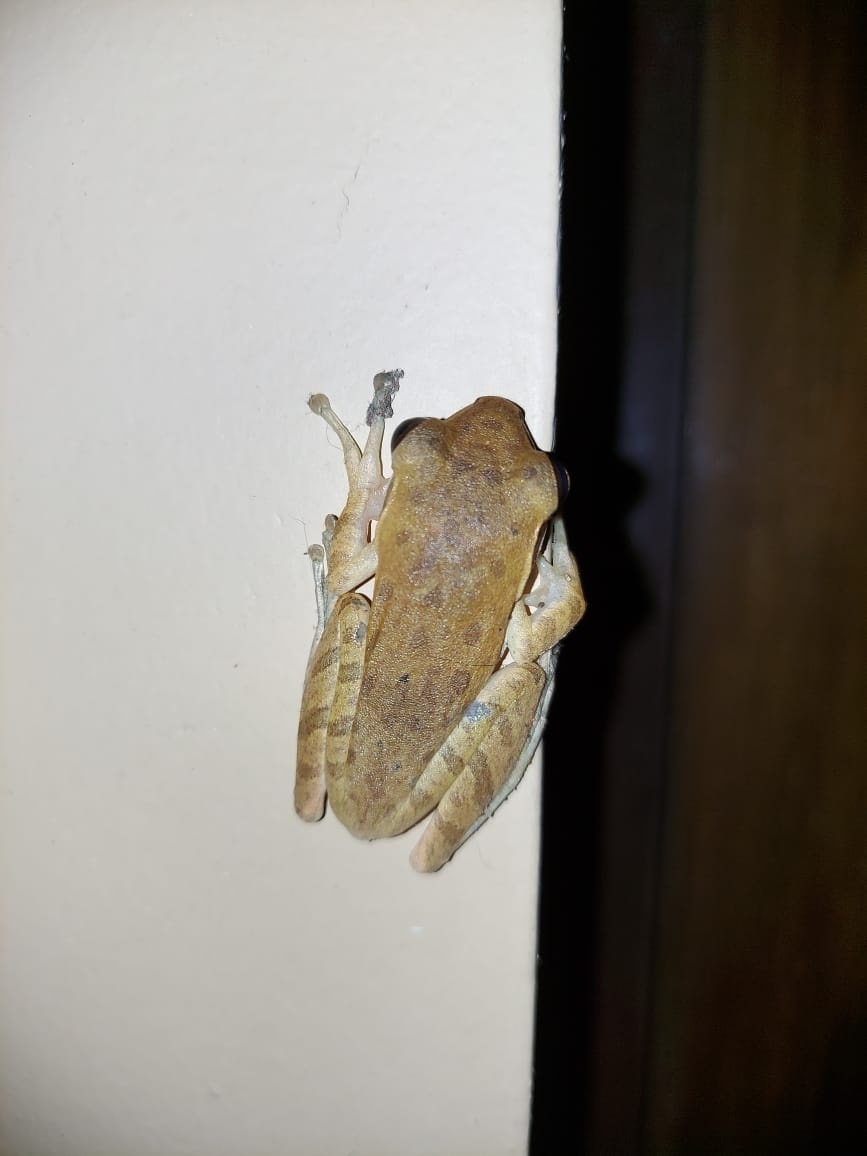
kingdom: Animalia
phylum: Chordata
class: Amphibia
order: Anura
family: Rhacophoridae
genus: Polypedates
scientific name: Polypedates maculatus
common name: Himalayan tree frog
